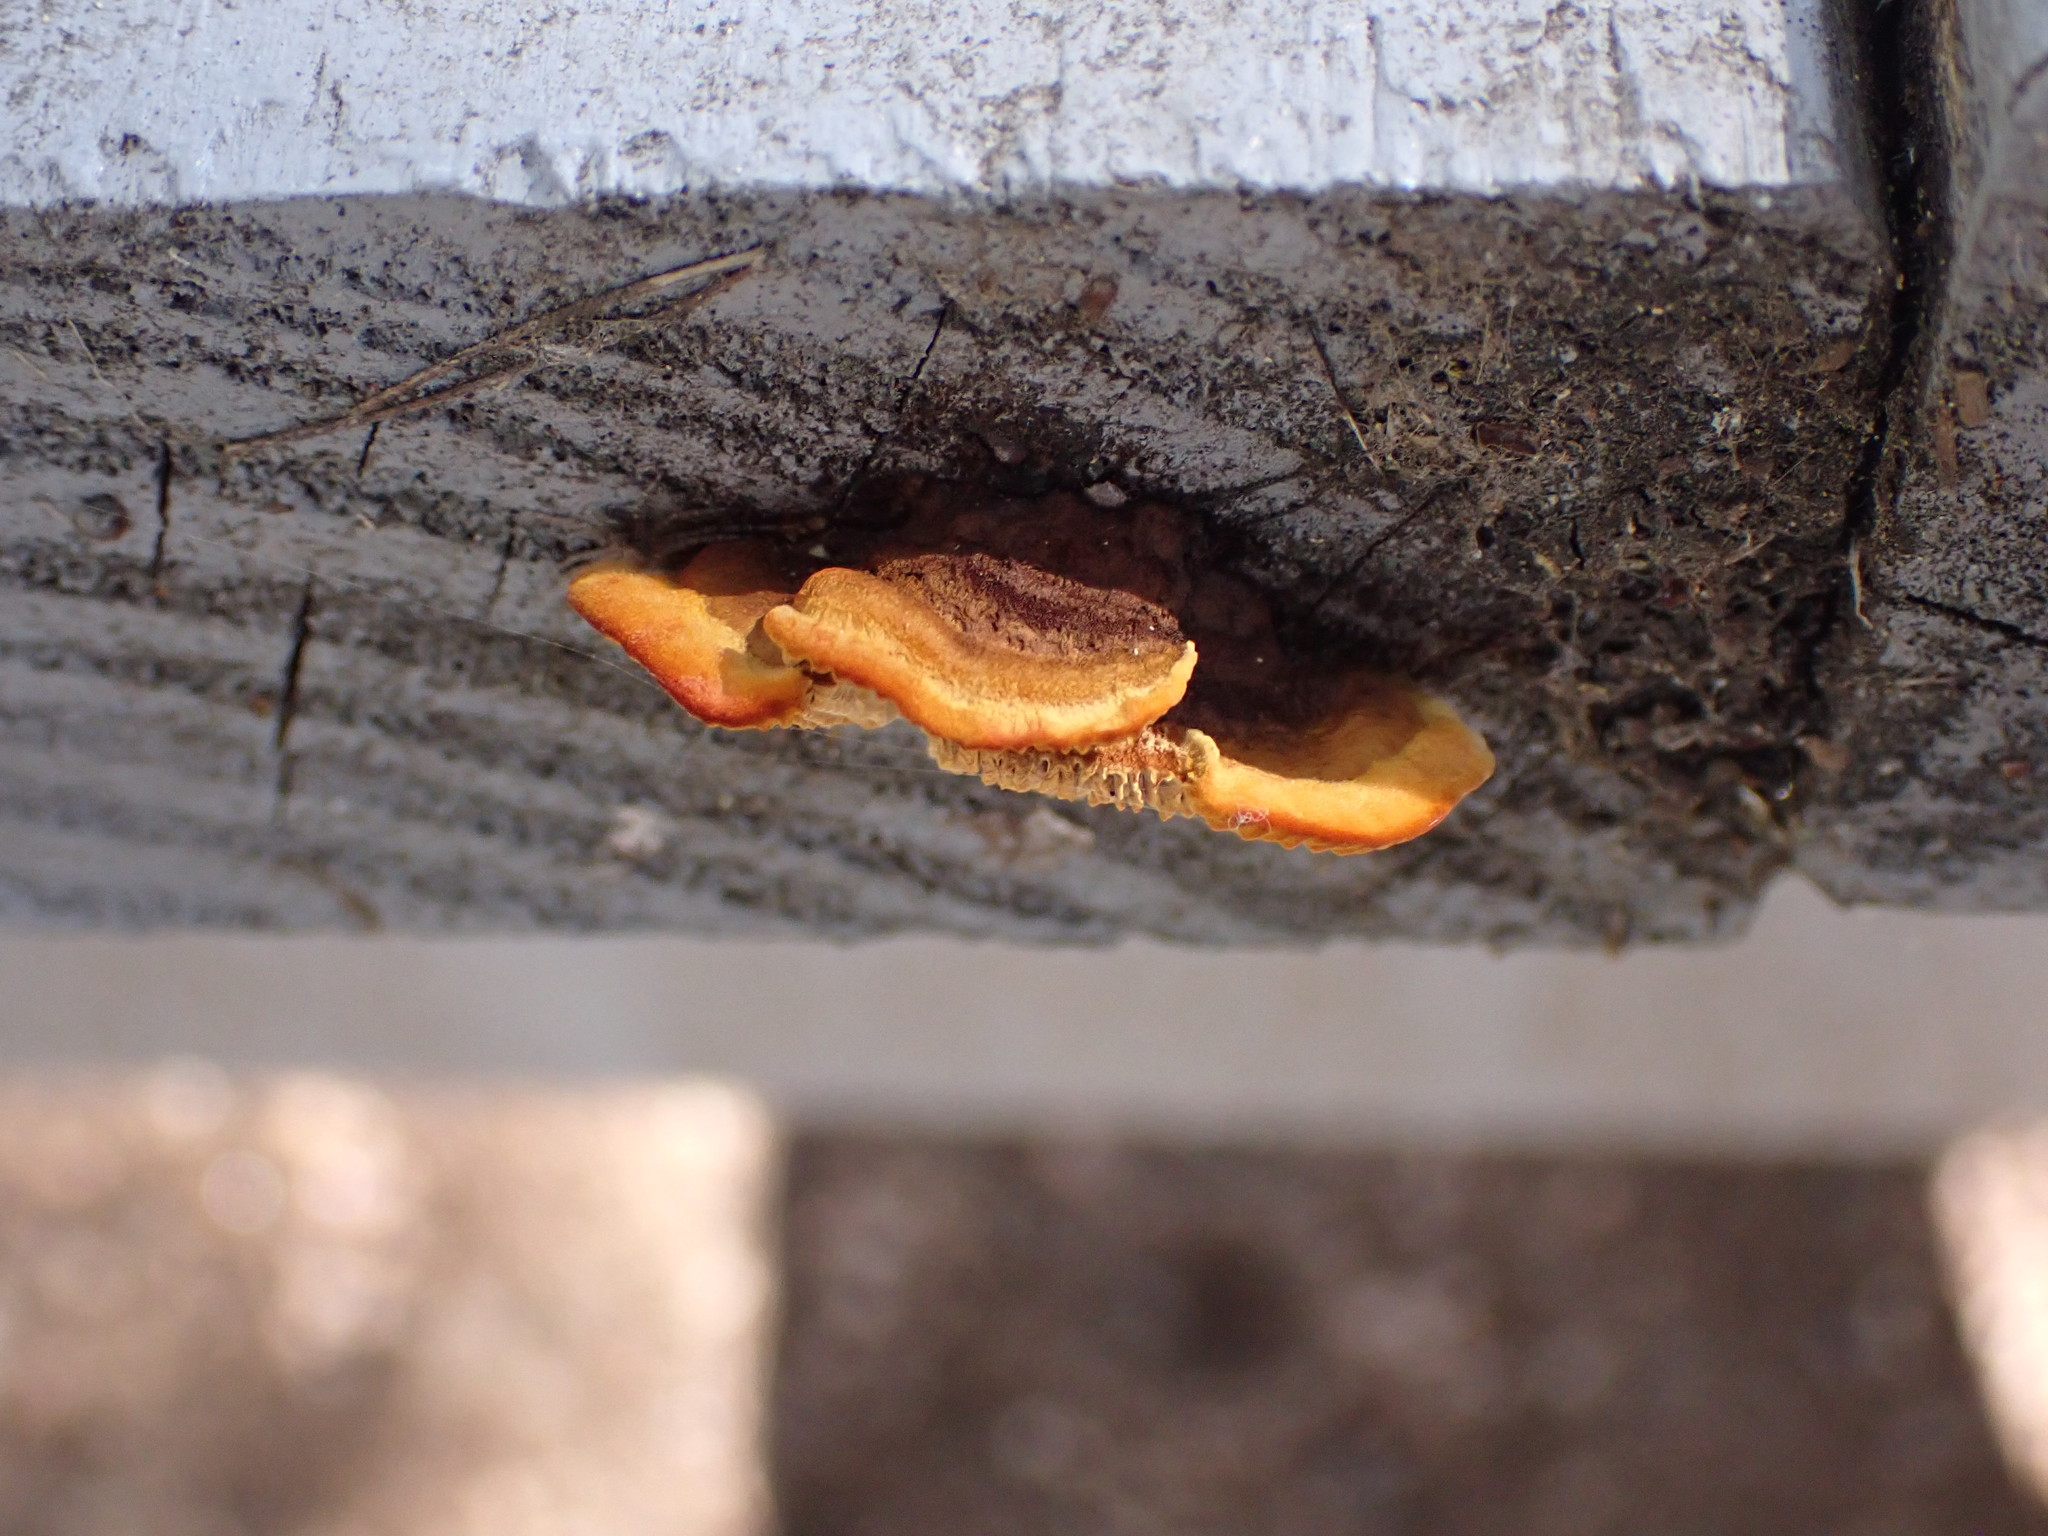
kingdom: Fungi
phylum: Basidiomycota
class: Agaricomycetes
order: Gloeophyllales
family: Gloeophyllaceae
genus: Gloeophyllum
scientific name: Gloeophyllum sepiarium
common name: Conifer mazegill
